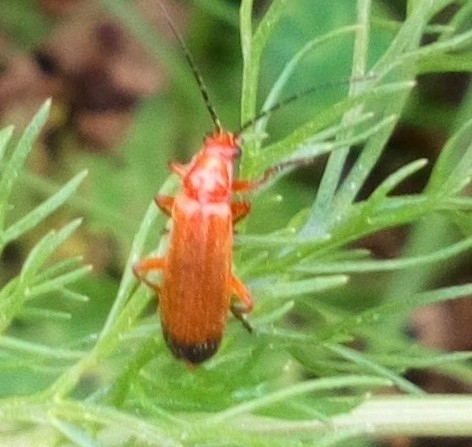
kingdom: Animalia
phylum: Arthropoda
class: Insecta
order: Coleoptera
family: Cantharidae
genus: Rhagonycha
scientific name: Rhagonycha fulva
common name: Common red soldier beetle
